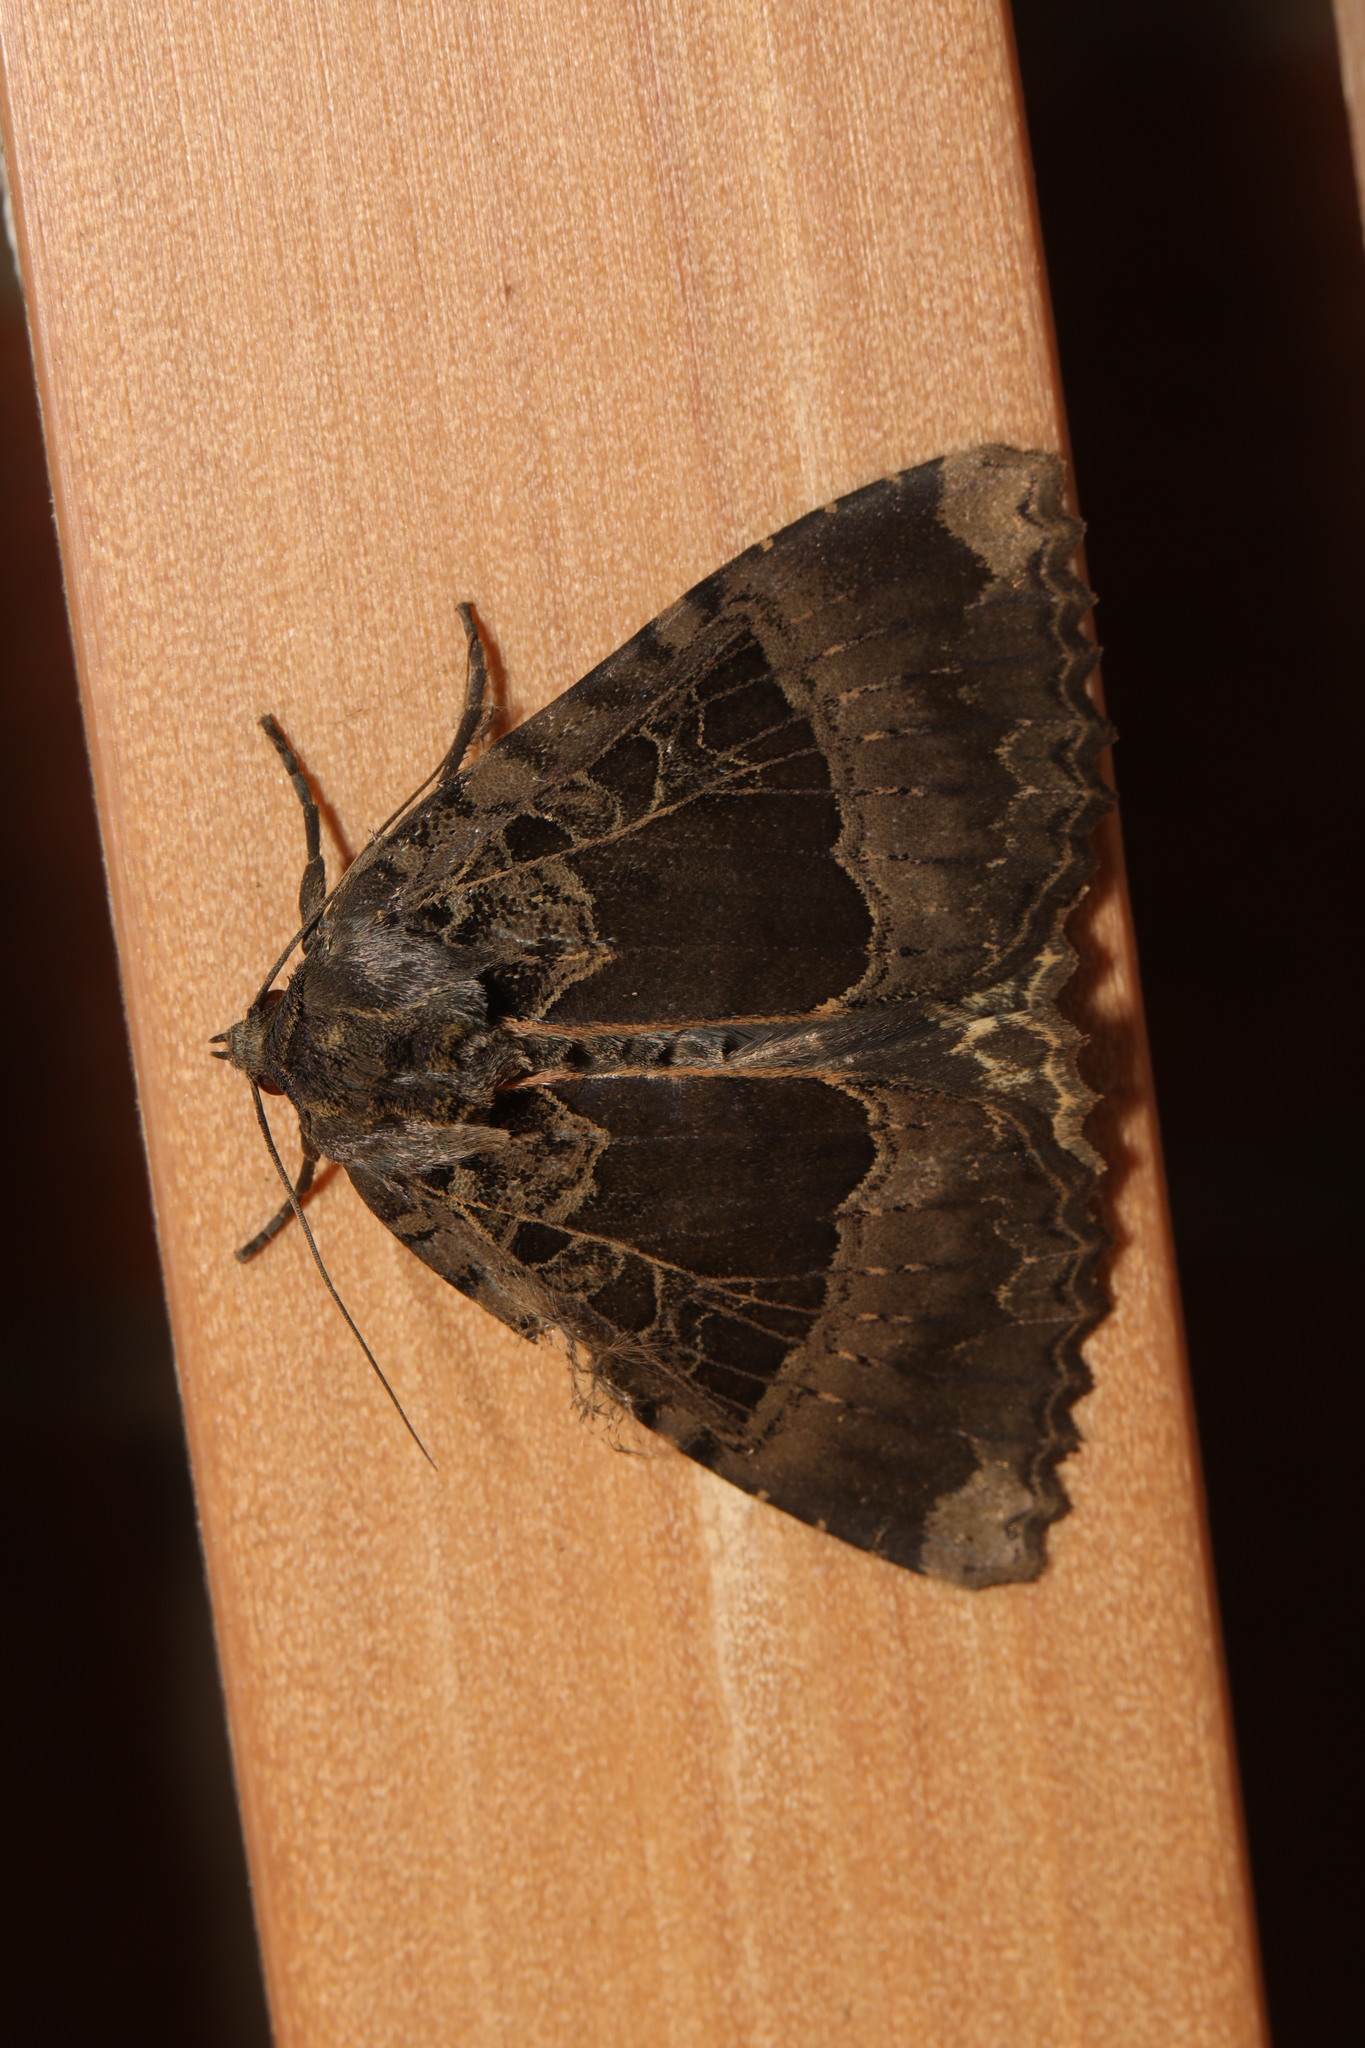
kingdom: Animalia
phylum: Arthropoda
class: Insecta
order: Lepidoptera
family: Noctuidae
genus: Mormo
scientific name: Mormo maura
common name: Old lady
